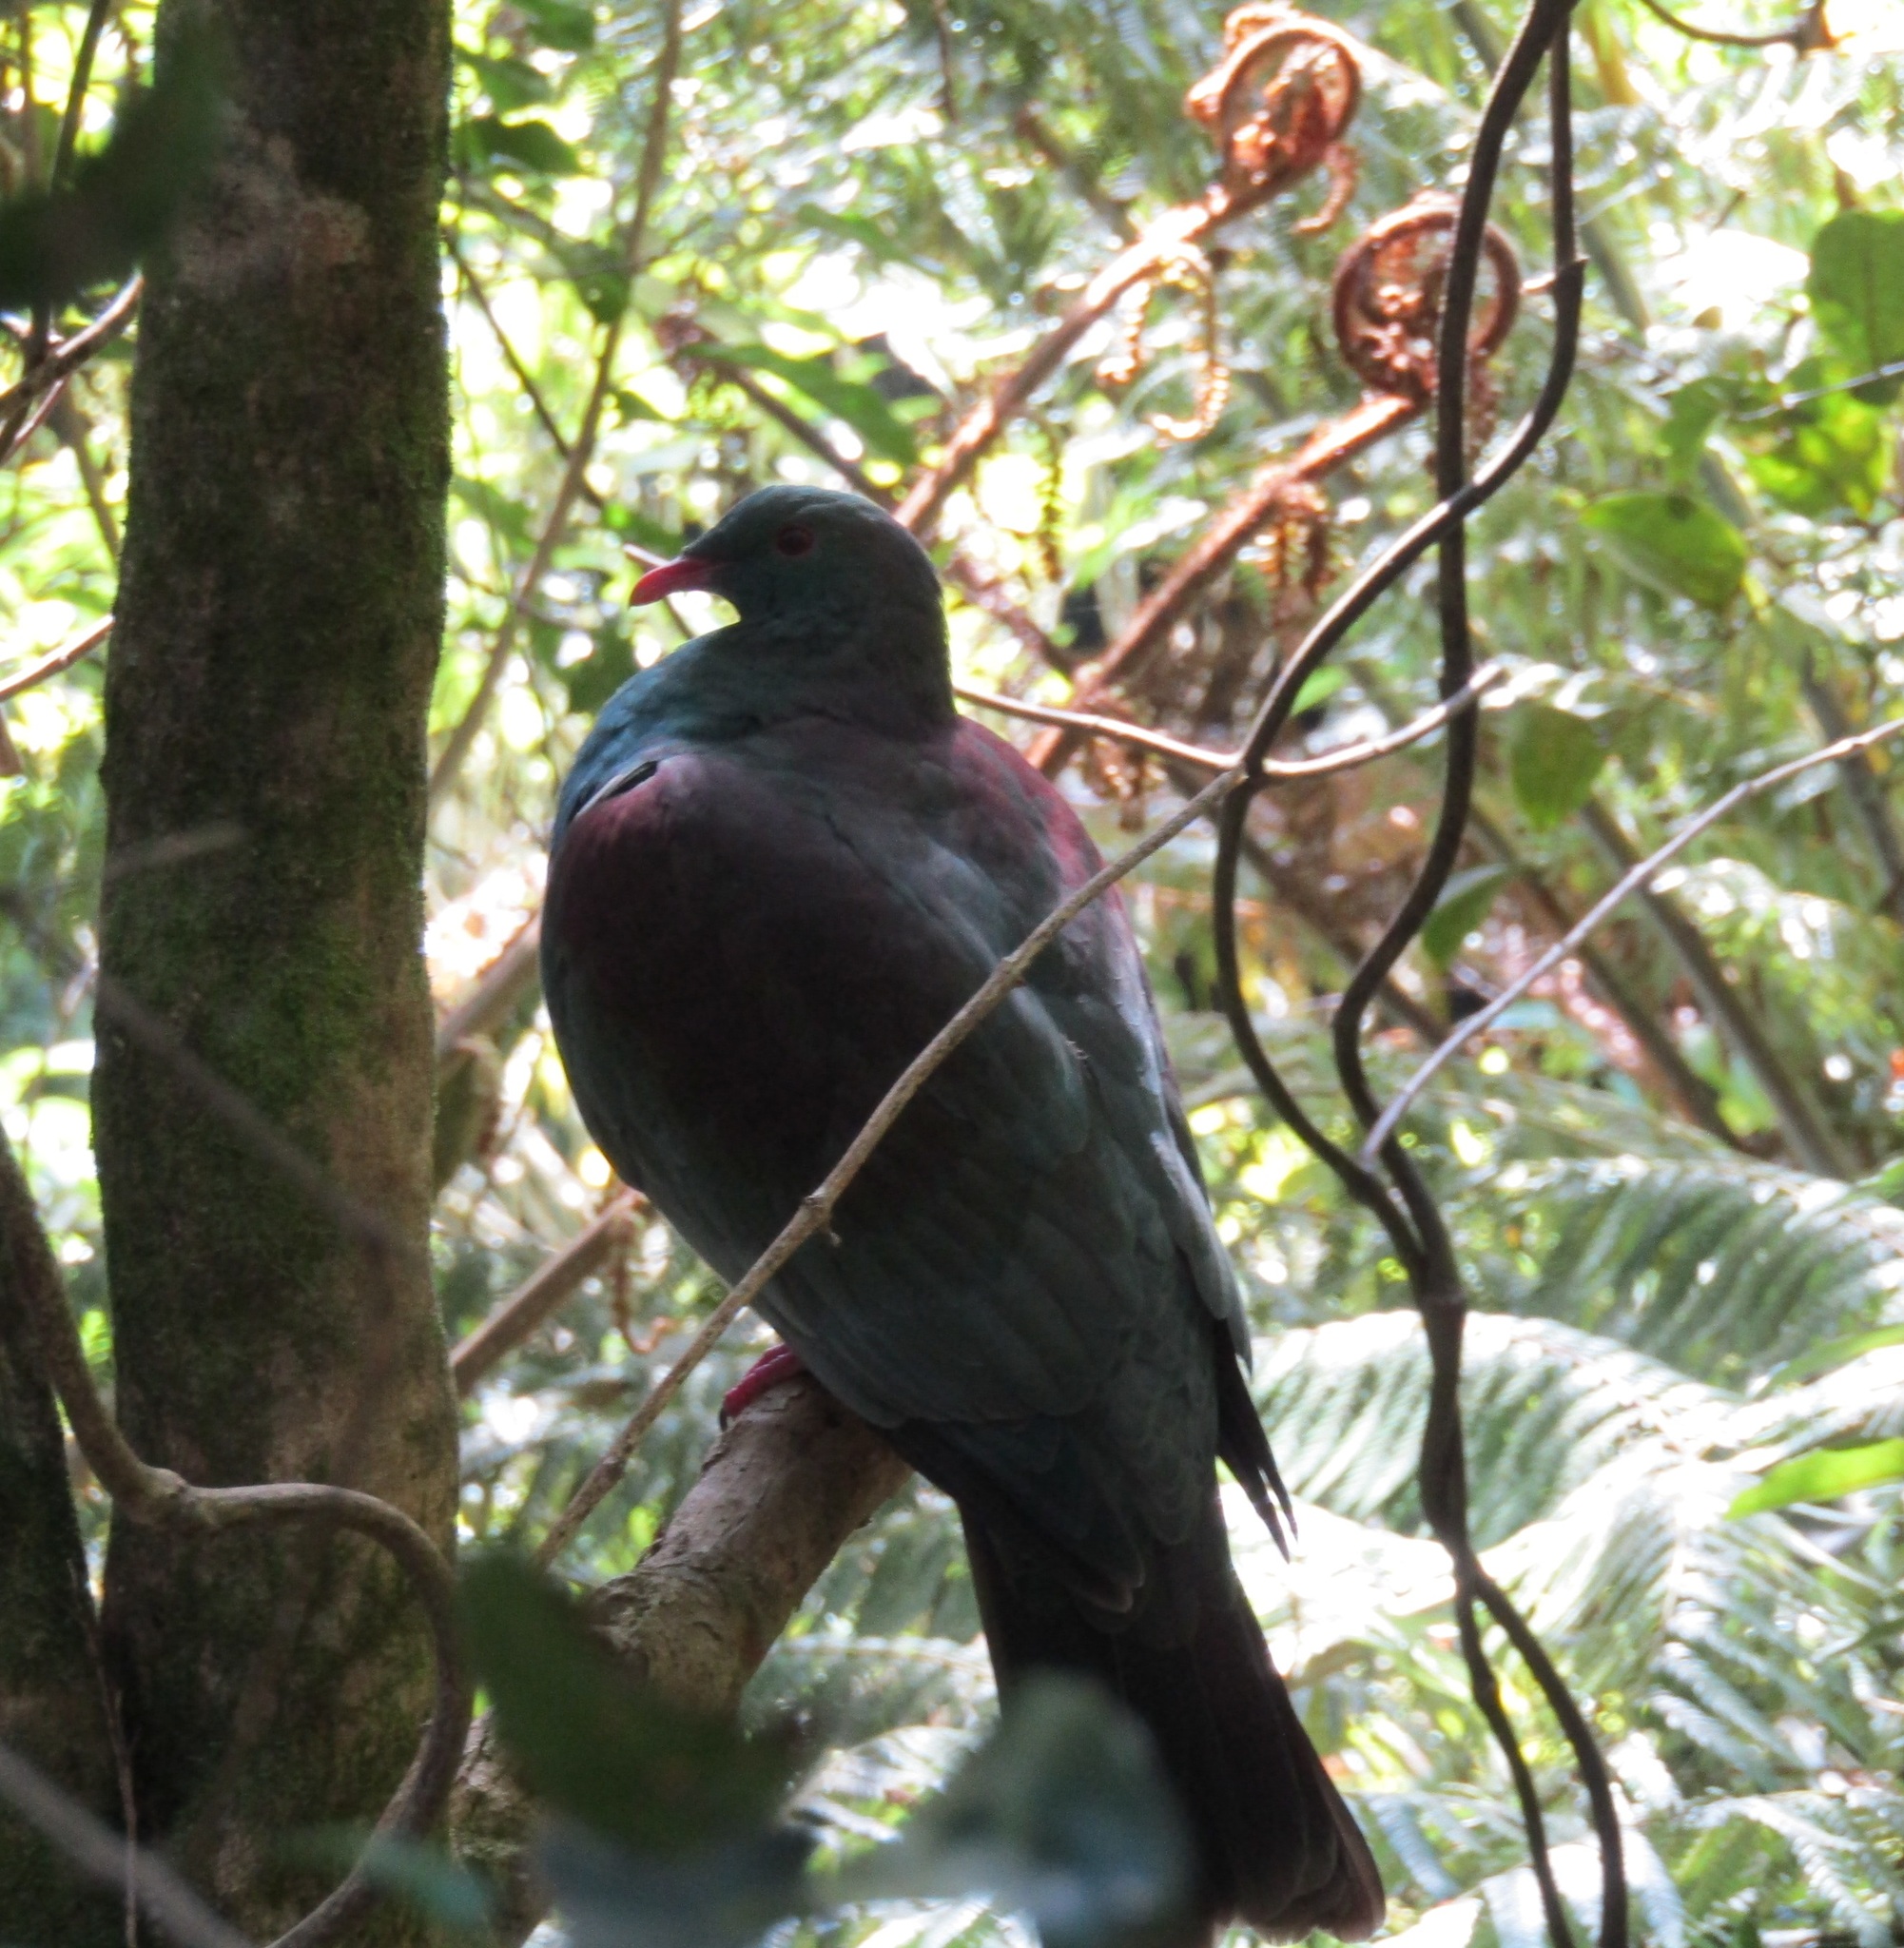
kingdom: Animalia
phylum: Chordata
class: Aves
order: Columbiformes
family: Columbidae
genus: Hemiphaga
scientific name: Hemiphaga novaeseelandiae
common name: New zealand pigeon
